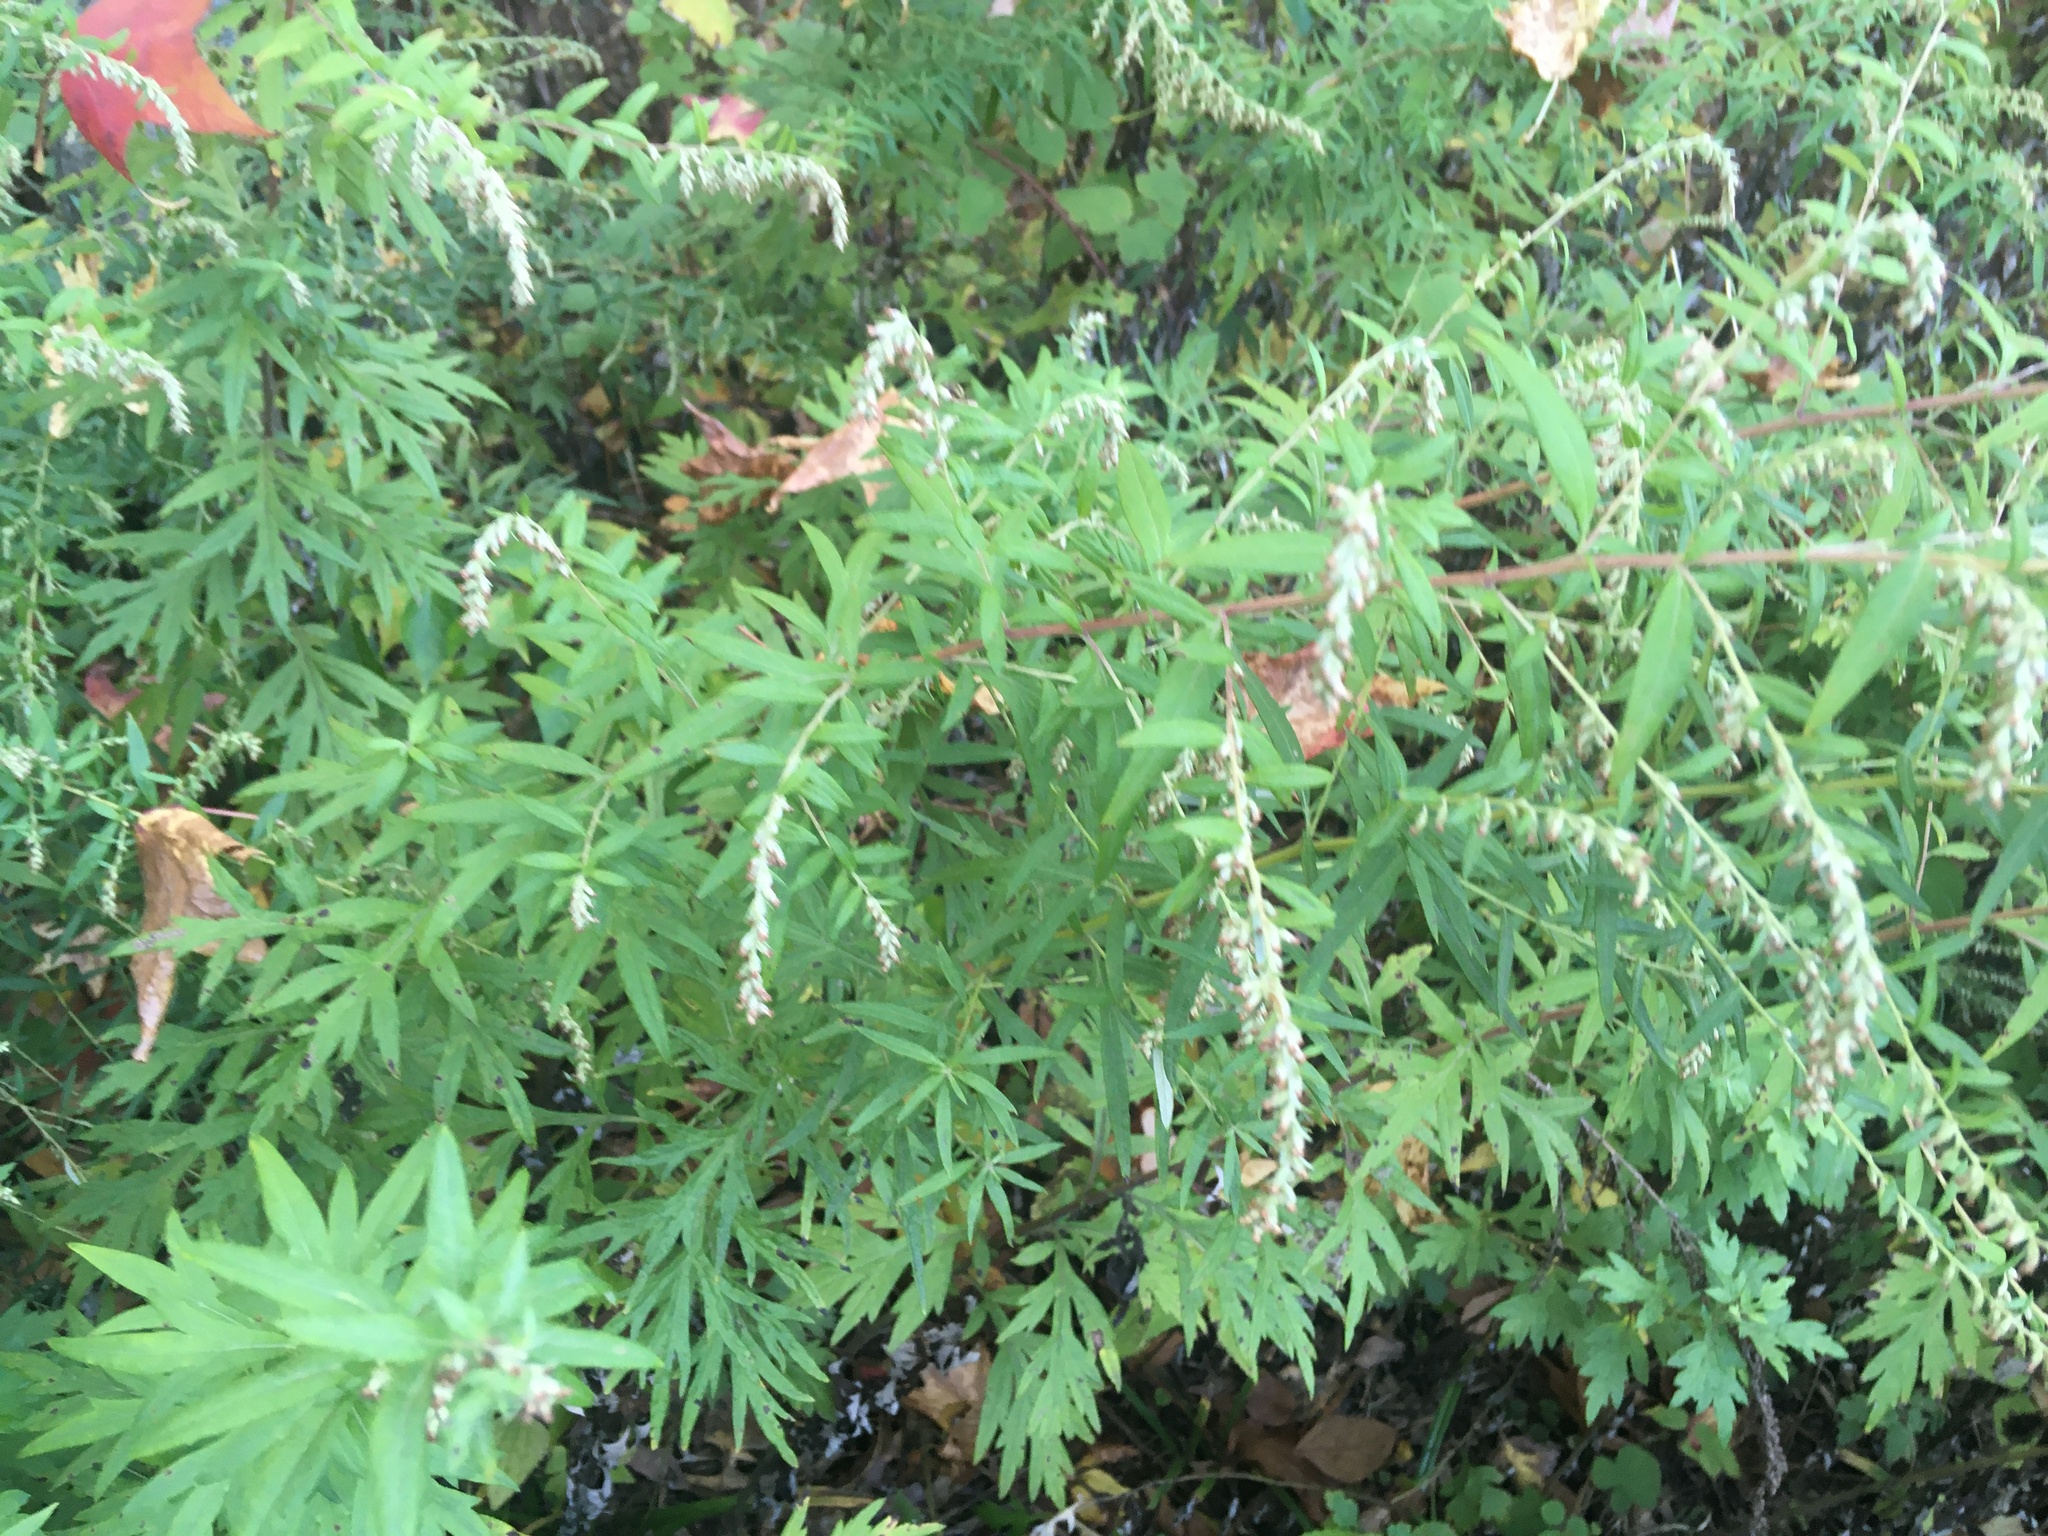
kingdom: Plantae
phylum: Tracheophyta
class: Magnoliopsida
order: Asterales
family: Asteraceae
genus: Artemisia
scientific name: Artemisia vulgaris
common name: Mugwort
